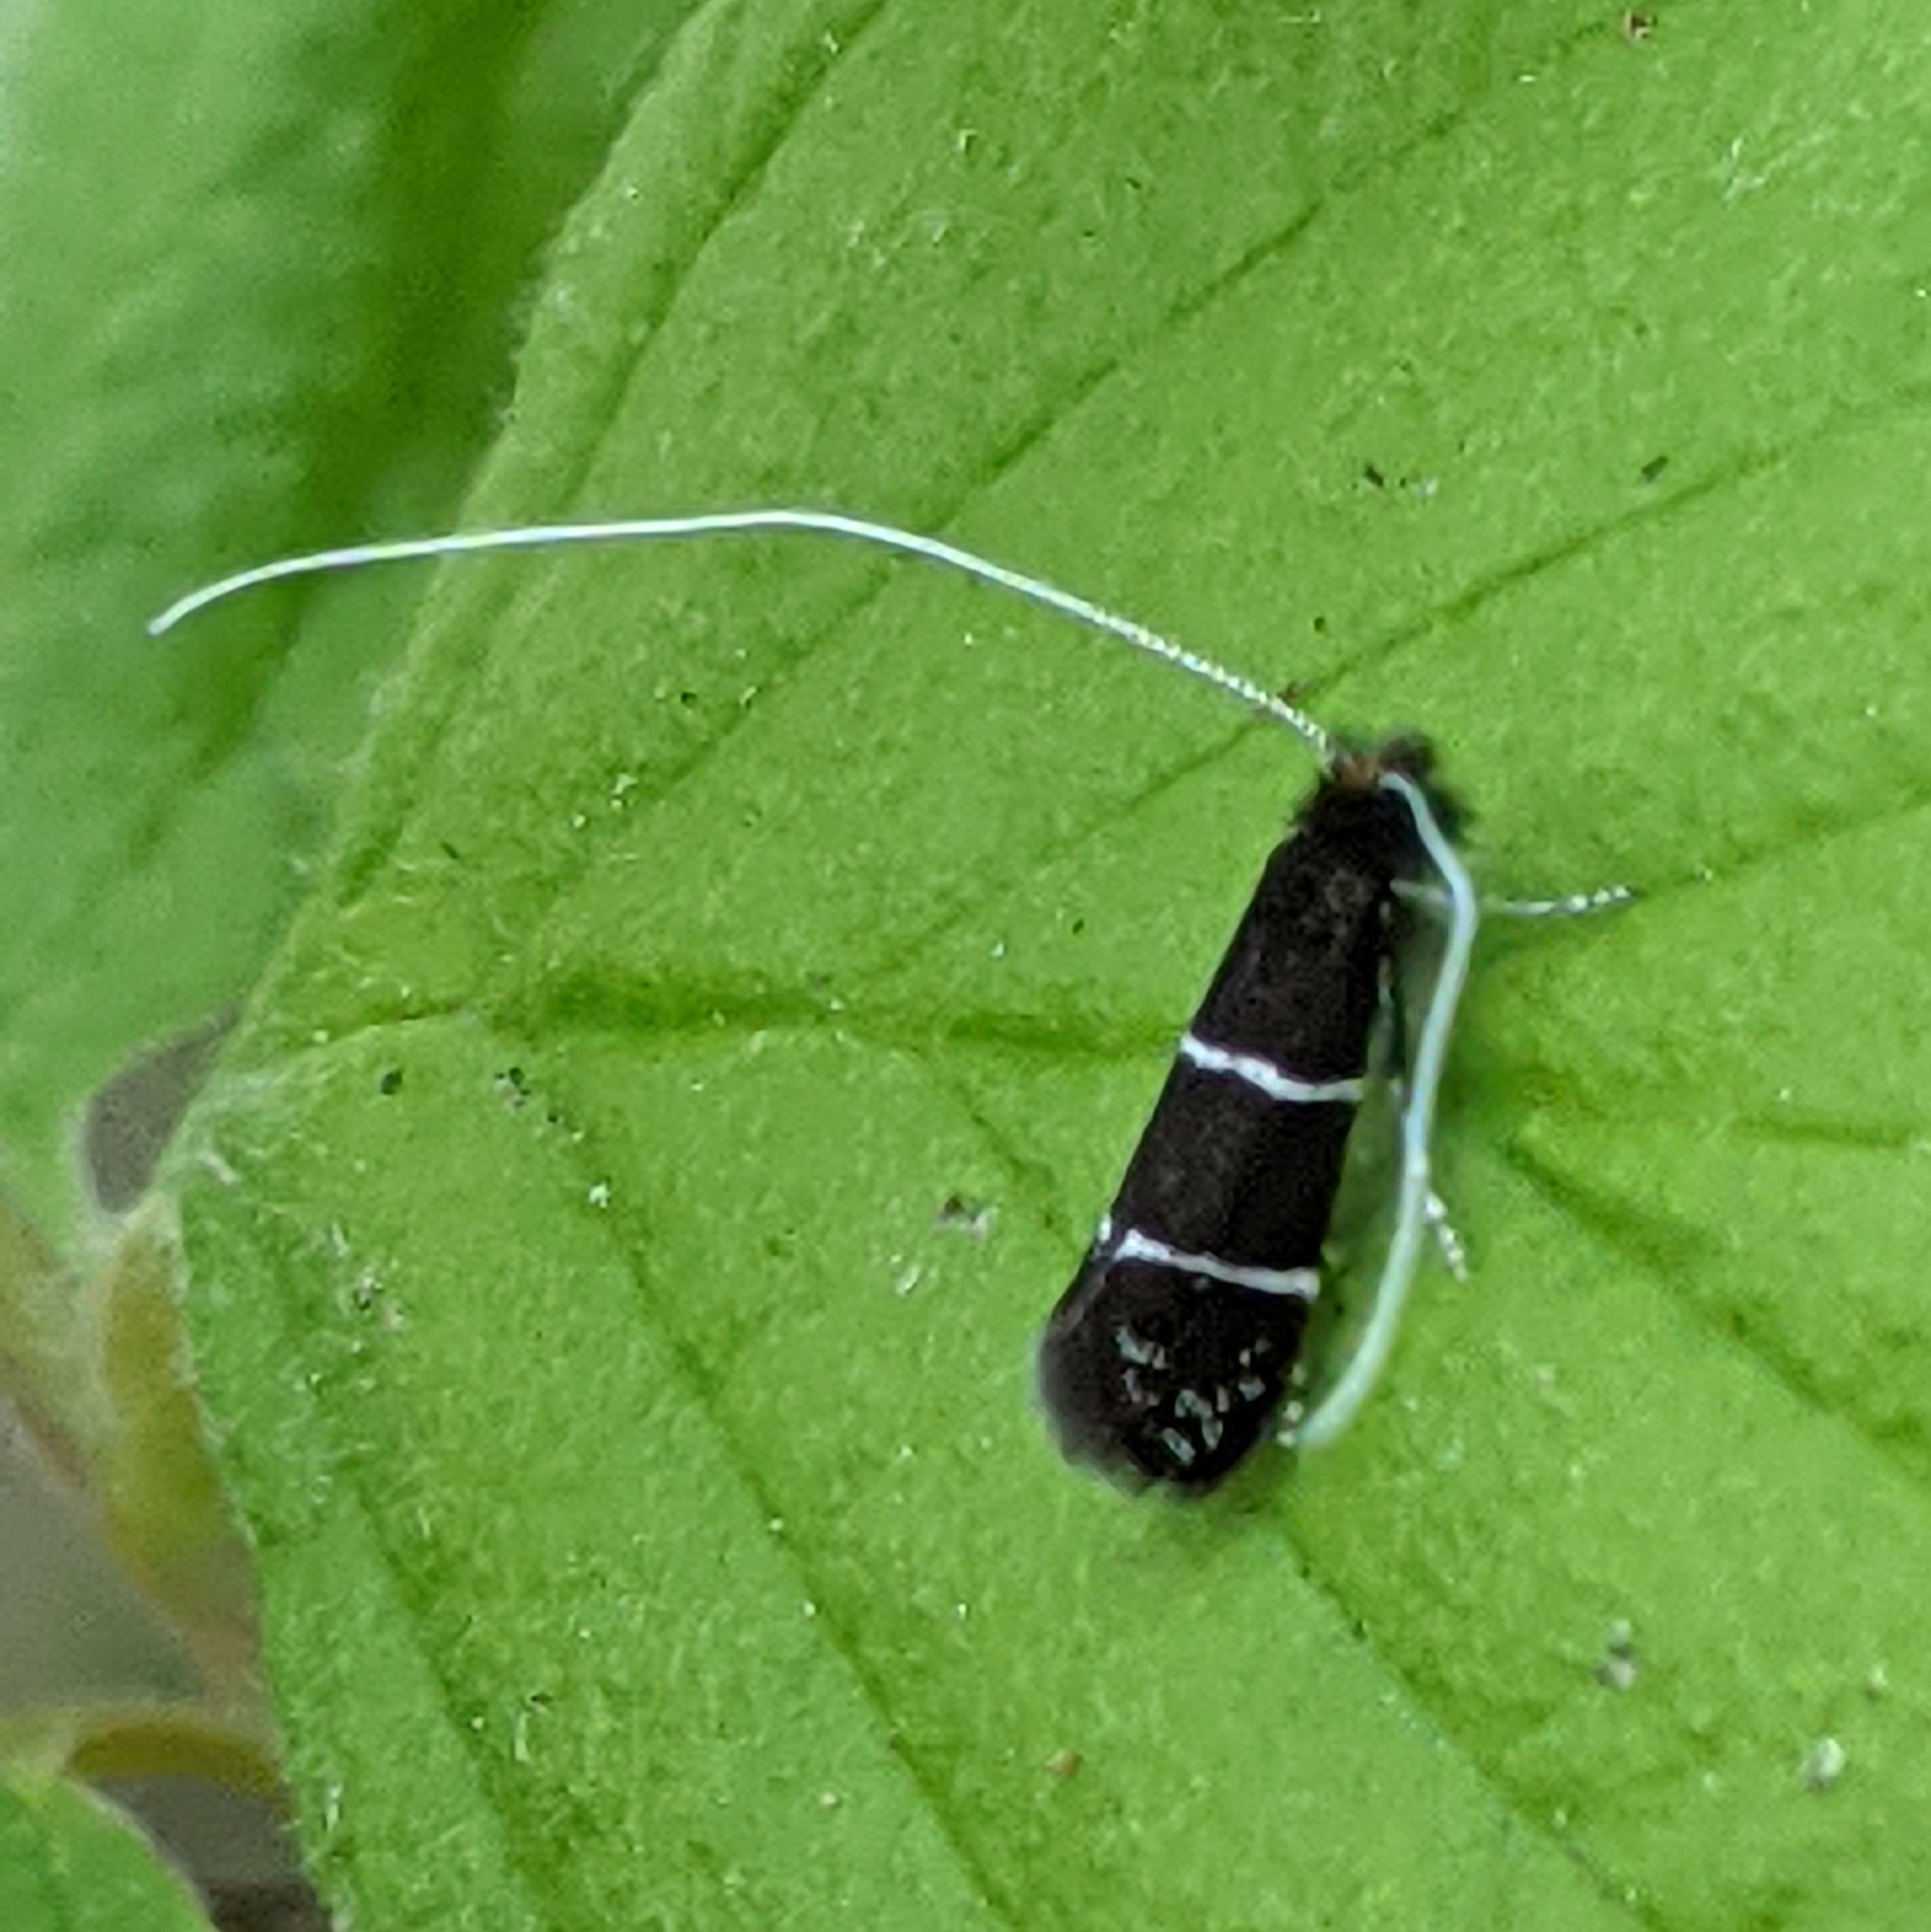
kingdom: Animalia
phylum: Arthropoda
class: Insecta
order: Lepidoptera
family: Adelidae
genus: Adela
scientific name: Adela septentrionella
